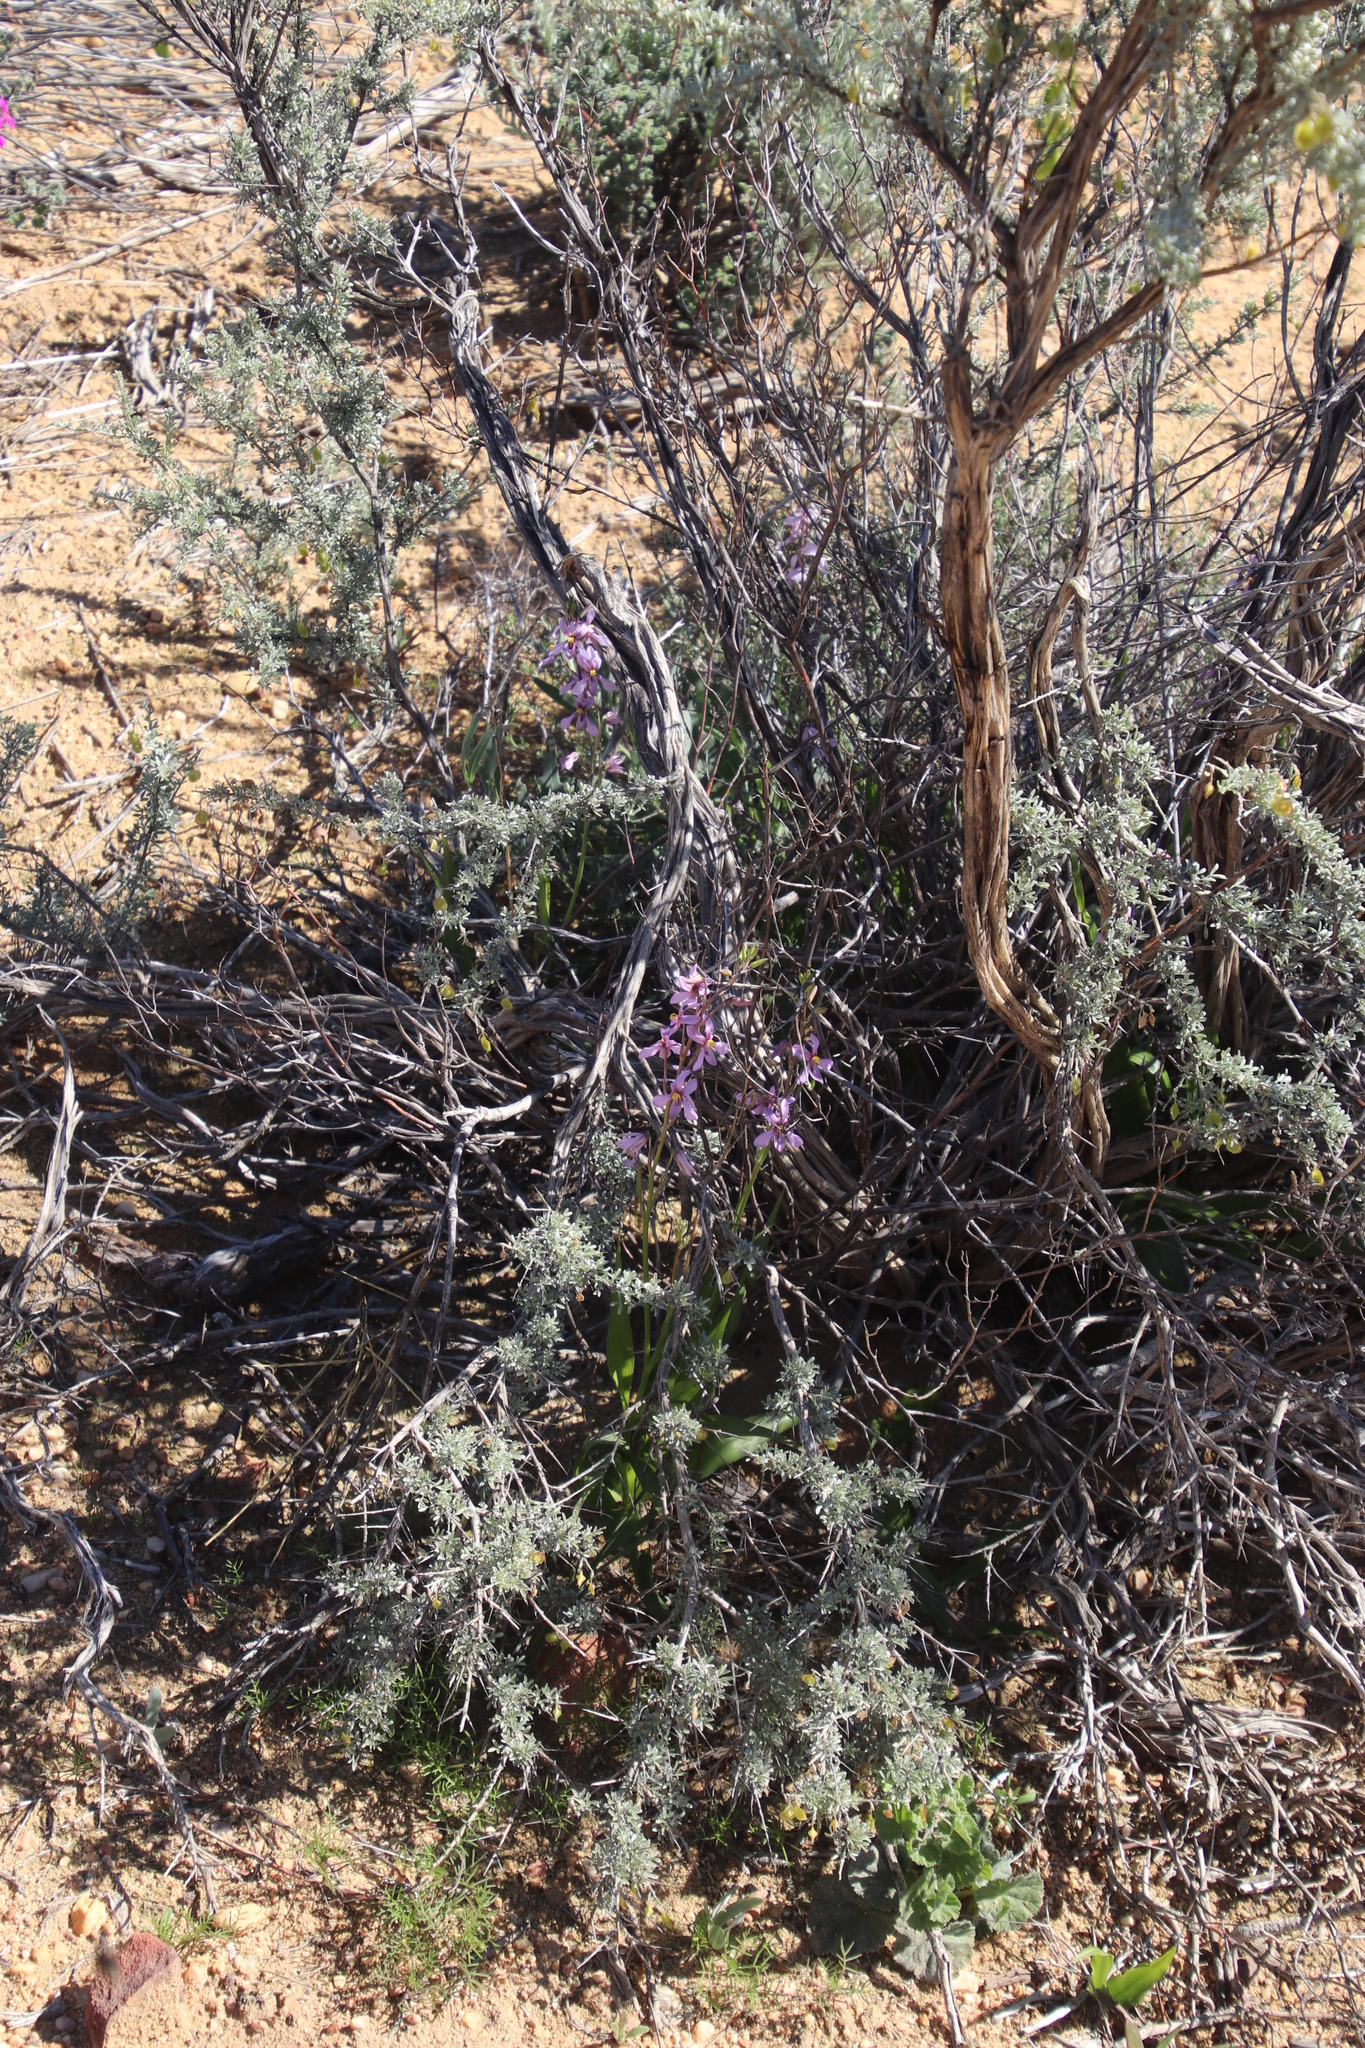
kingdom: Plantae
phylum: Tracheophyta
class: Liliopsida
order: Asparagales
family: Tecophilaeaceae
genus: Cyanella
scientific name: Cyanella hyacinthoides
